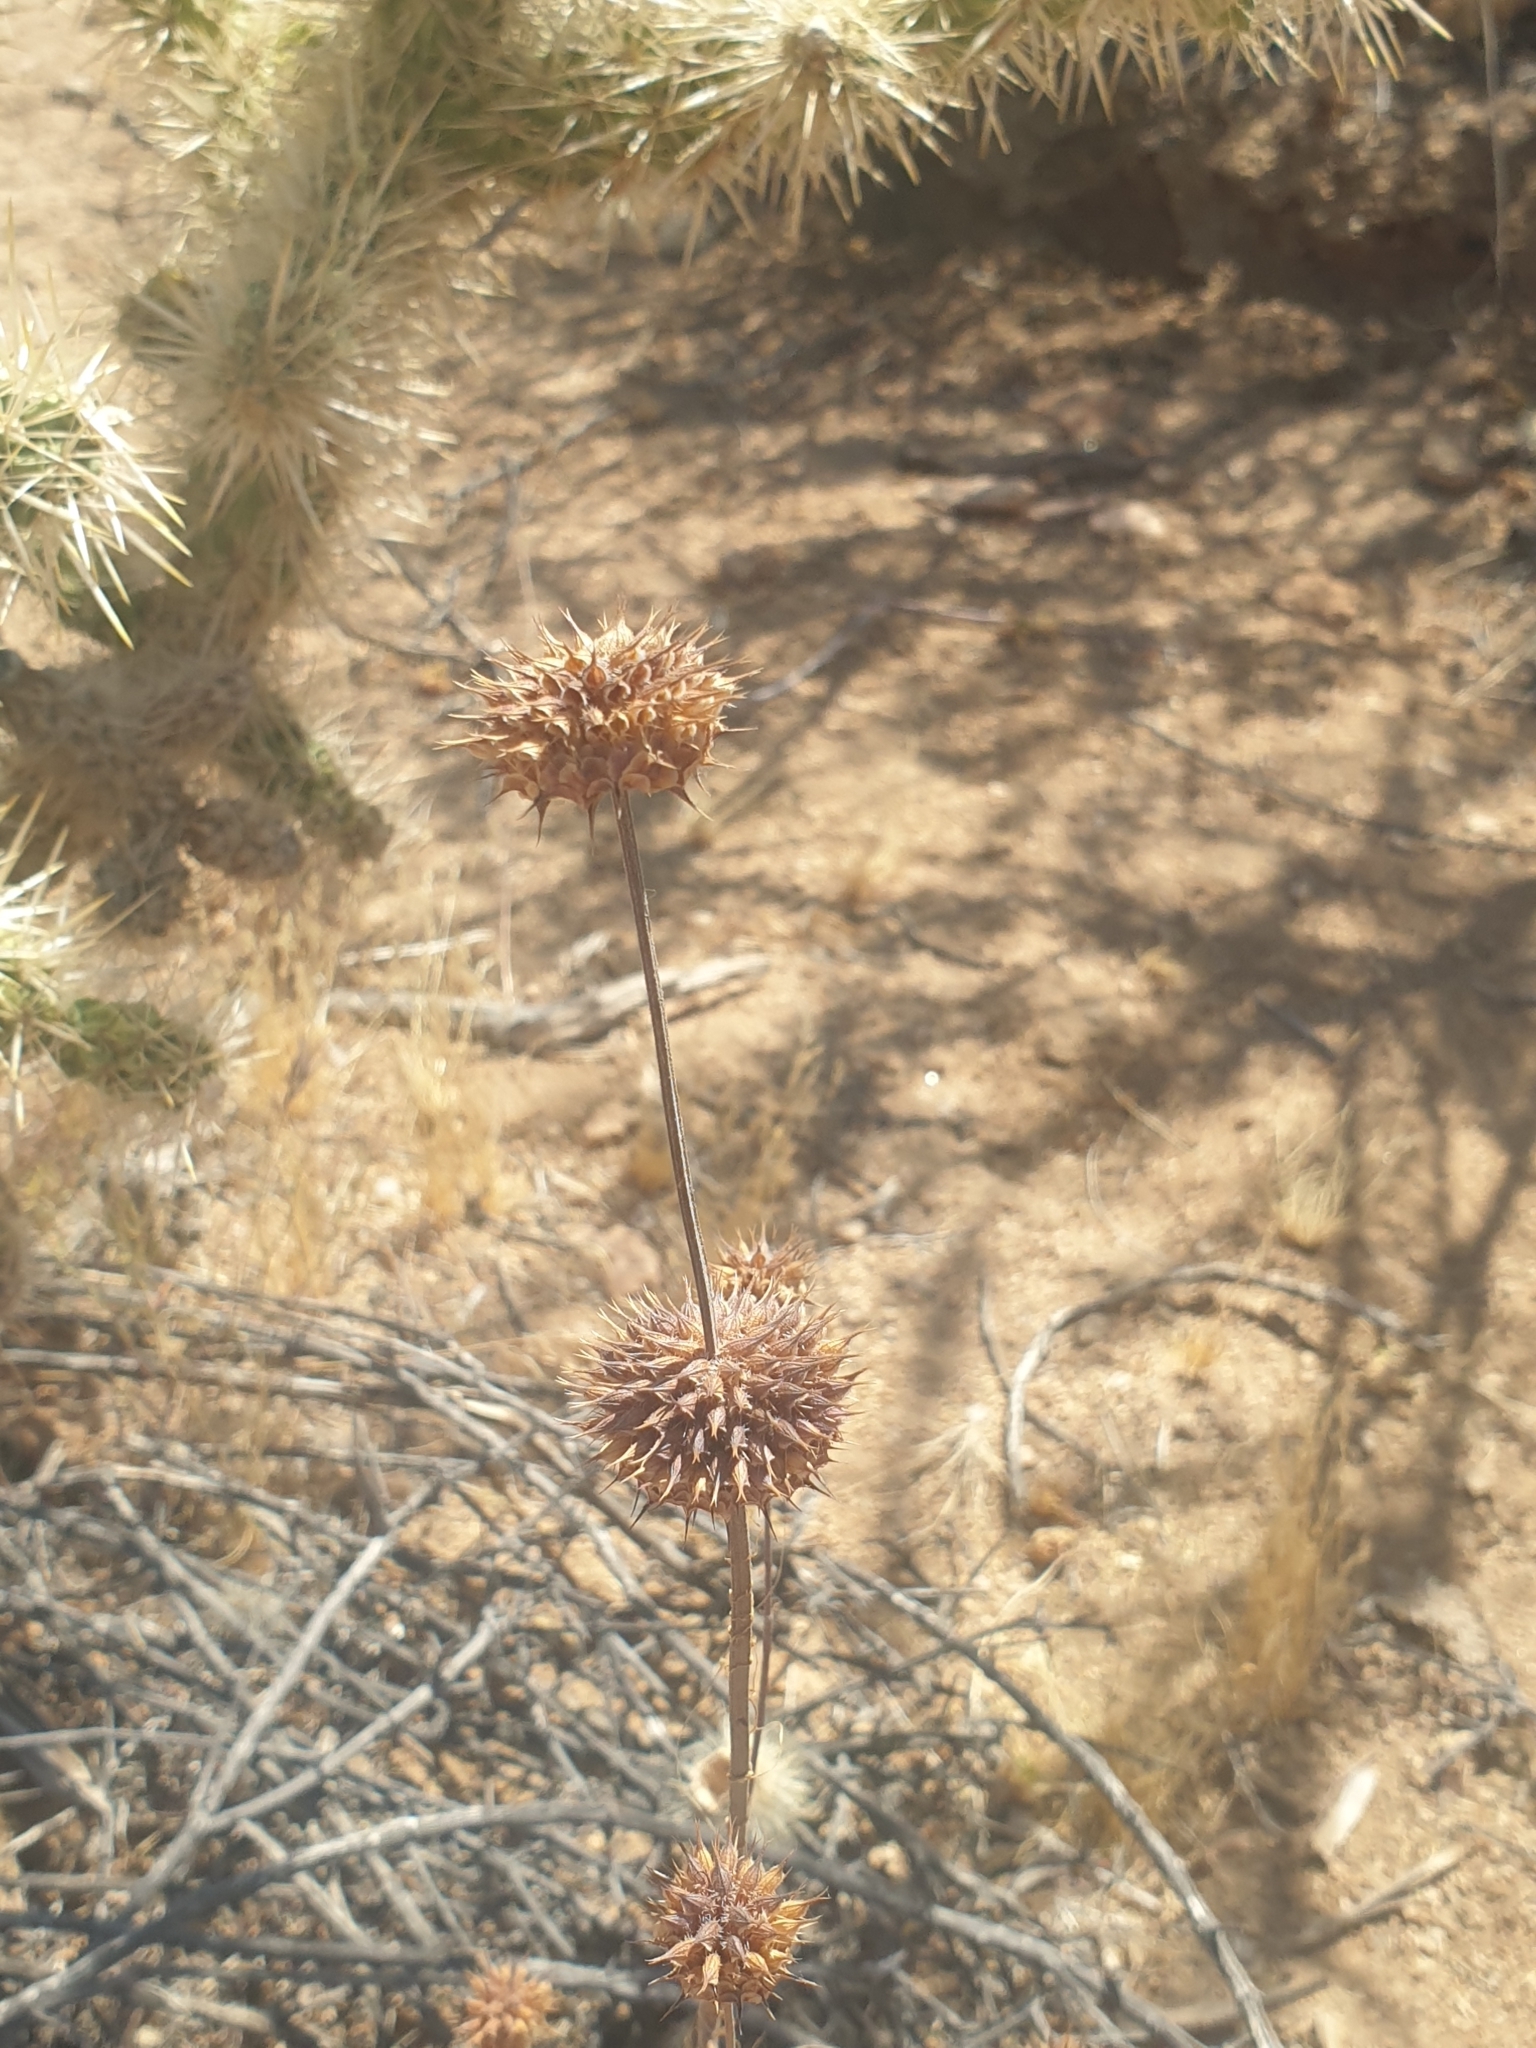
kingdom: Plantae
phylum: Tracheophyta
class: Magnoliopsida
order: Lamiales
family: Lamiaceae
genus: Salvia
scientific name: Salvia columbariae
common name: Chia
